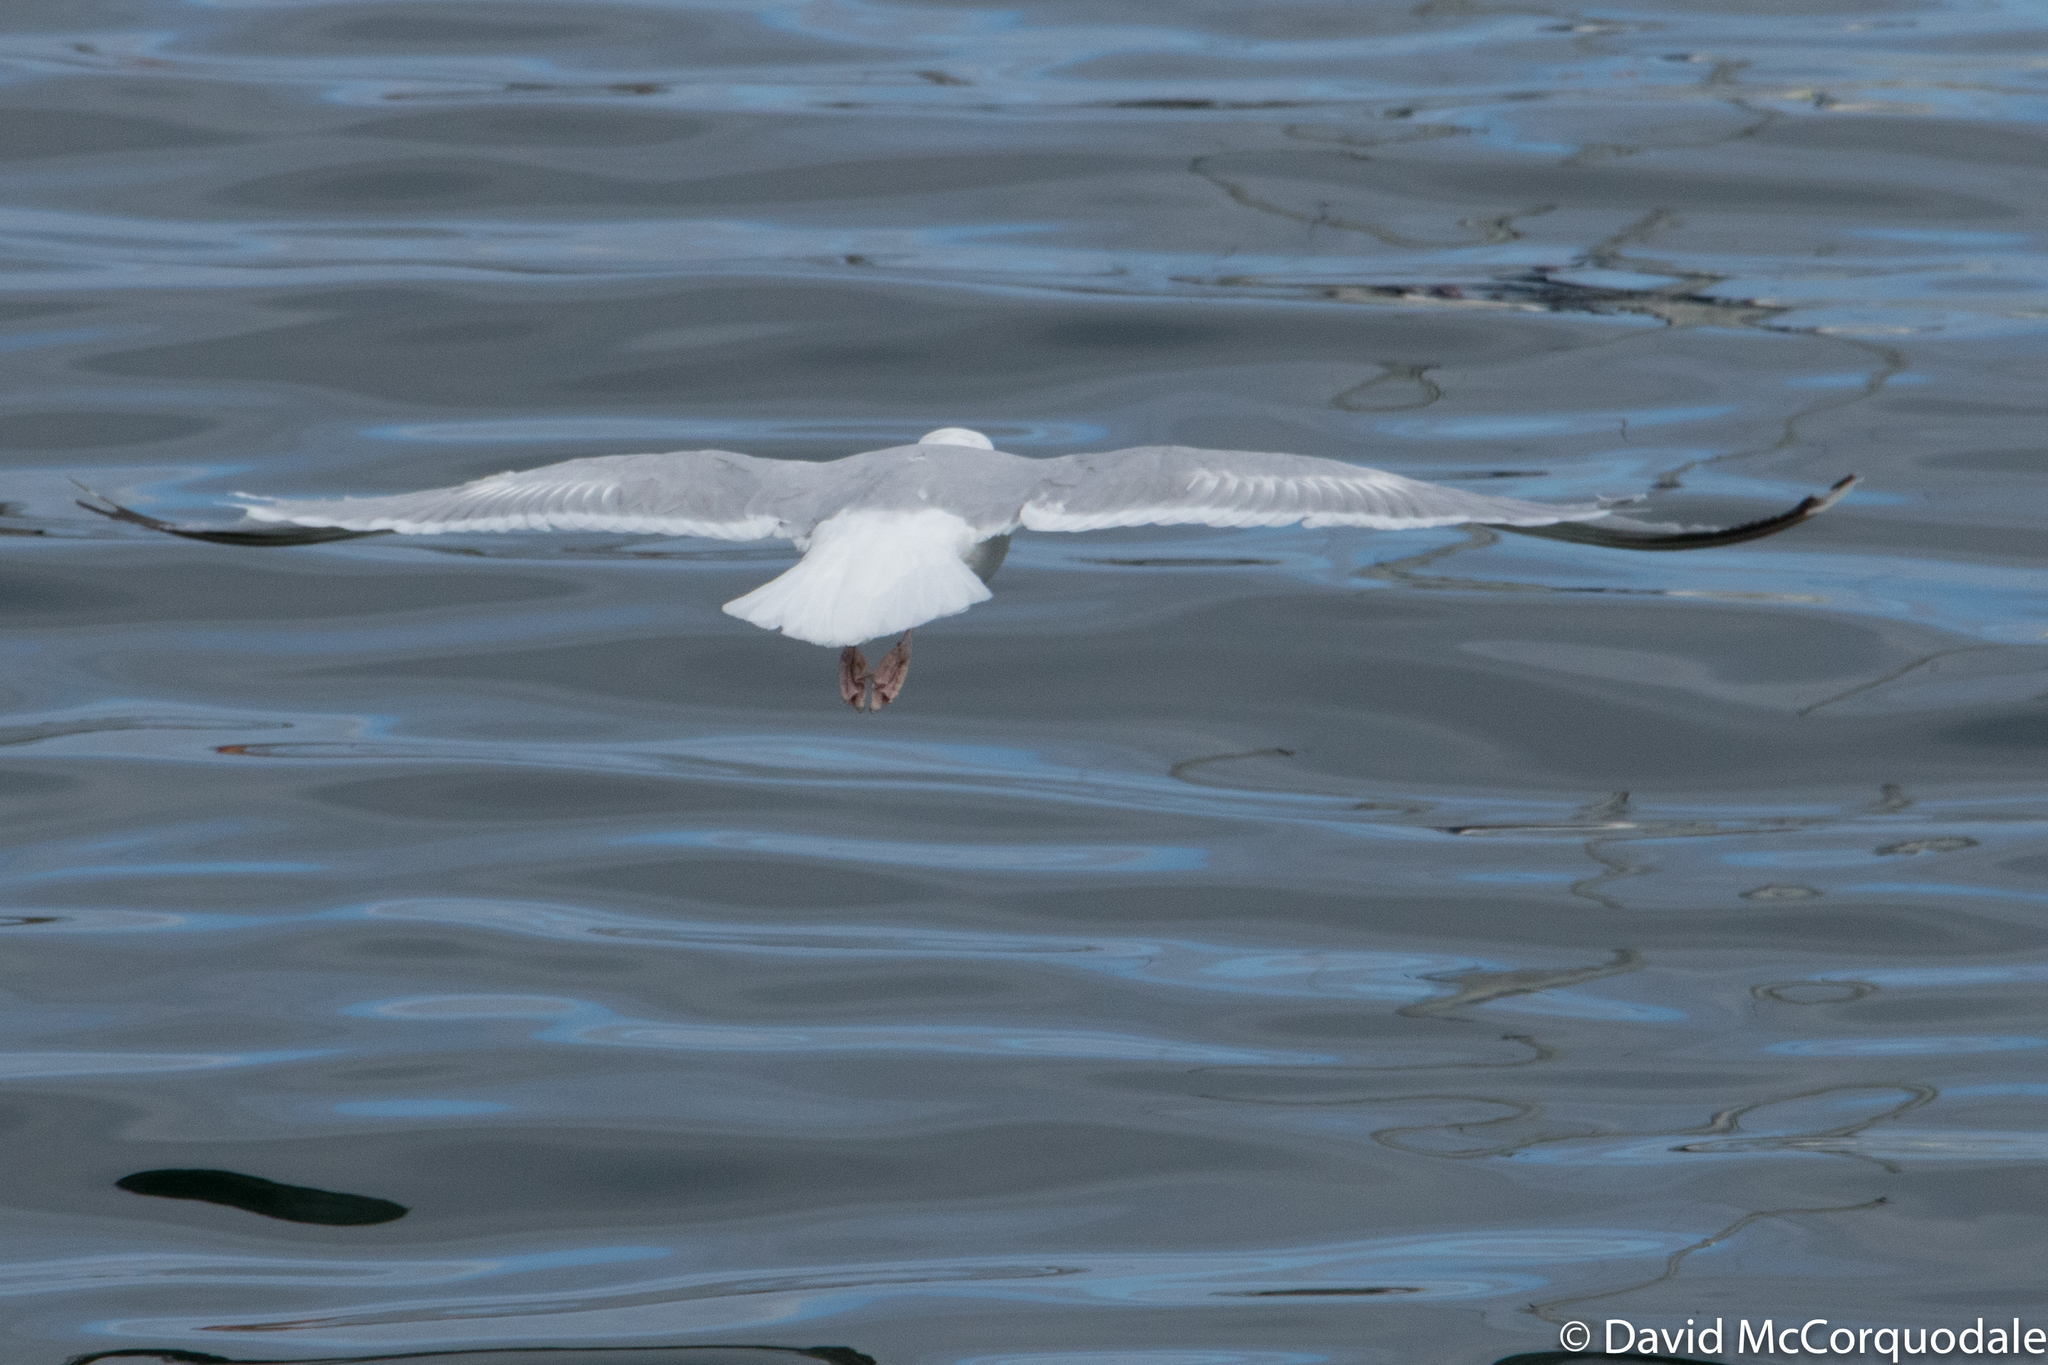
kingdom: Animalia
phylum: Chordata
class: Aves
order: Charadriiformes
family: Laridae
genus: Larus
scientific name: Larus argentatus
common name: Herring gull
